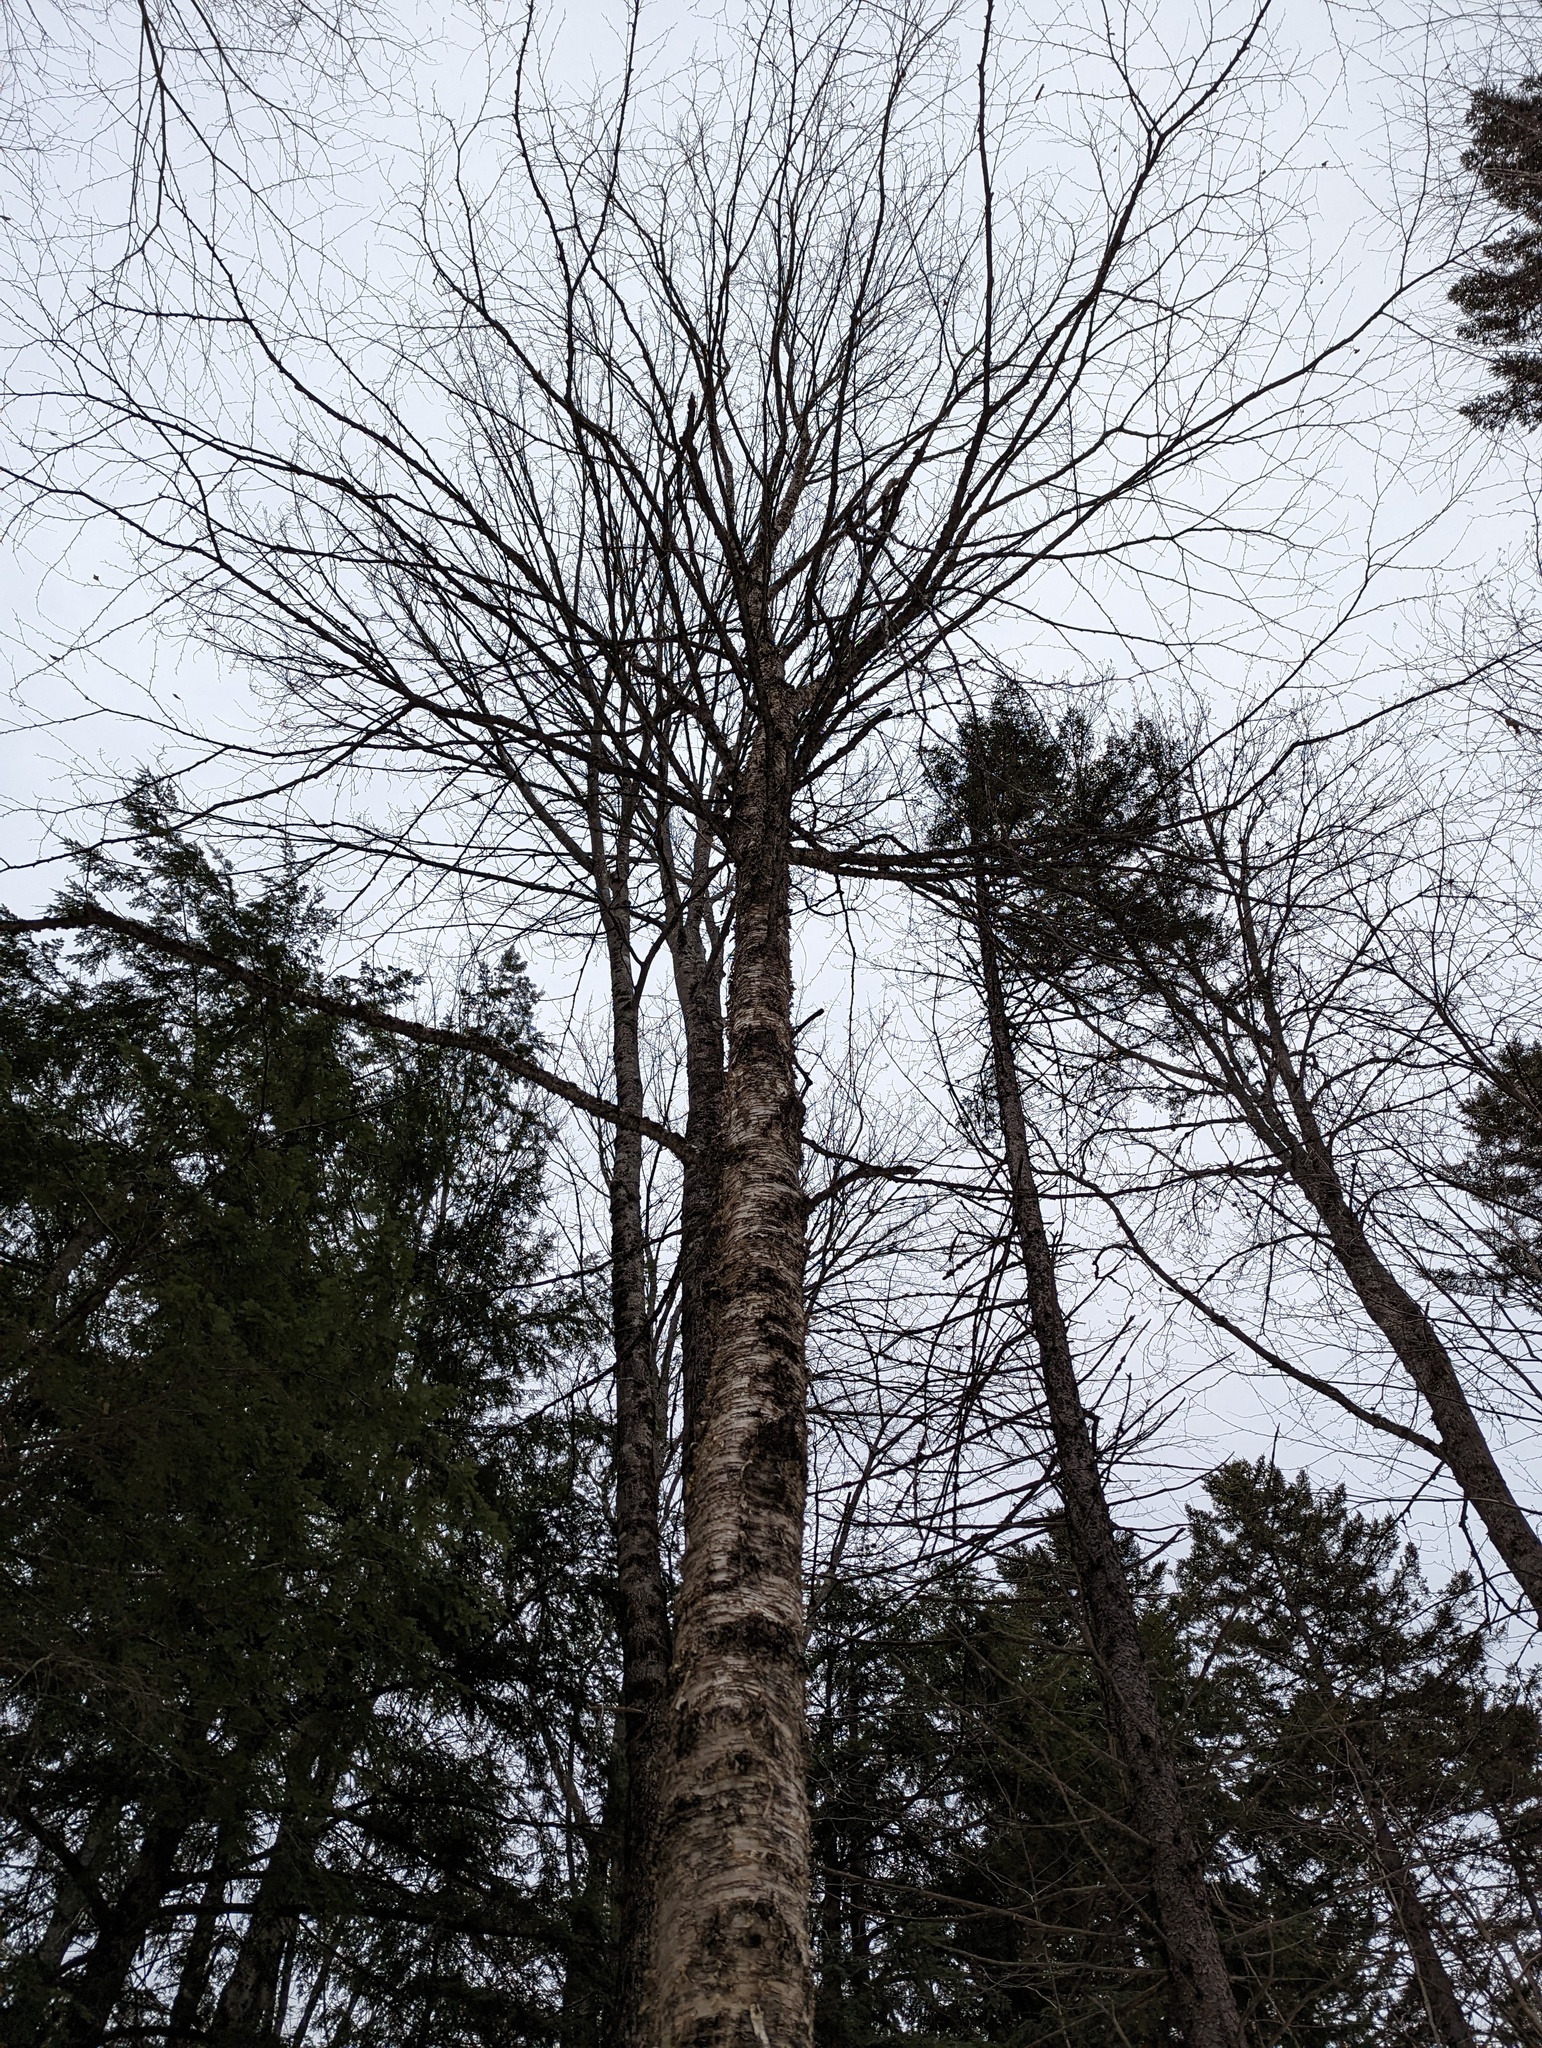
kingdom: Plantae
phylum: Tracheophyta
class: Magnoliopsida
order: Fagales
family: Betulaceae
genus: Betula
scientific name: Betula alleghaniensis
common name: Yellow birch
